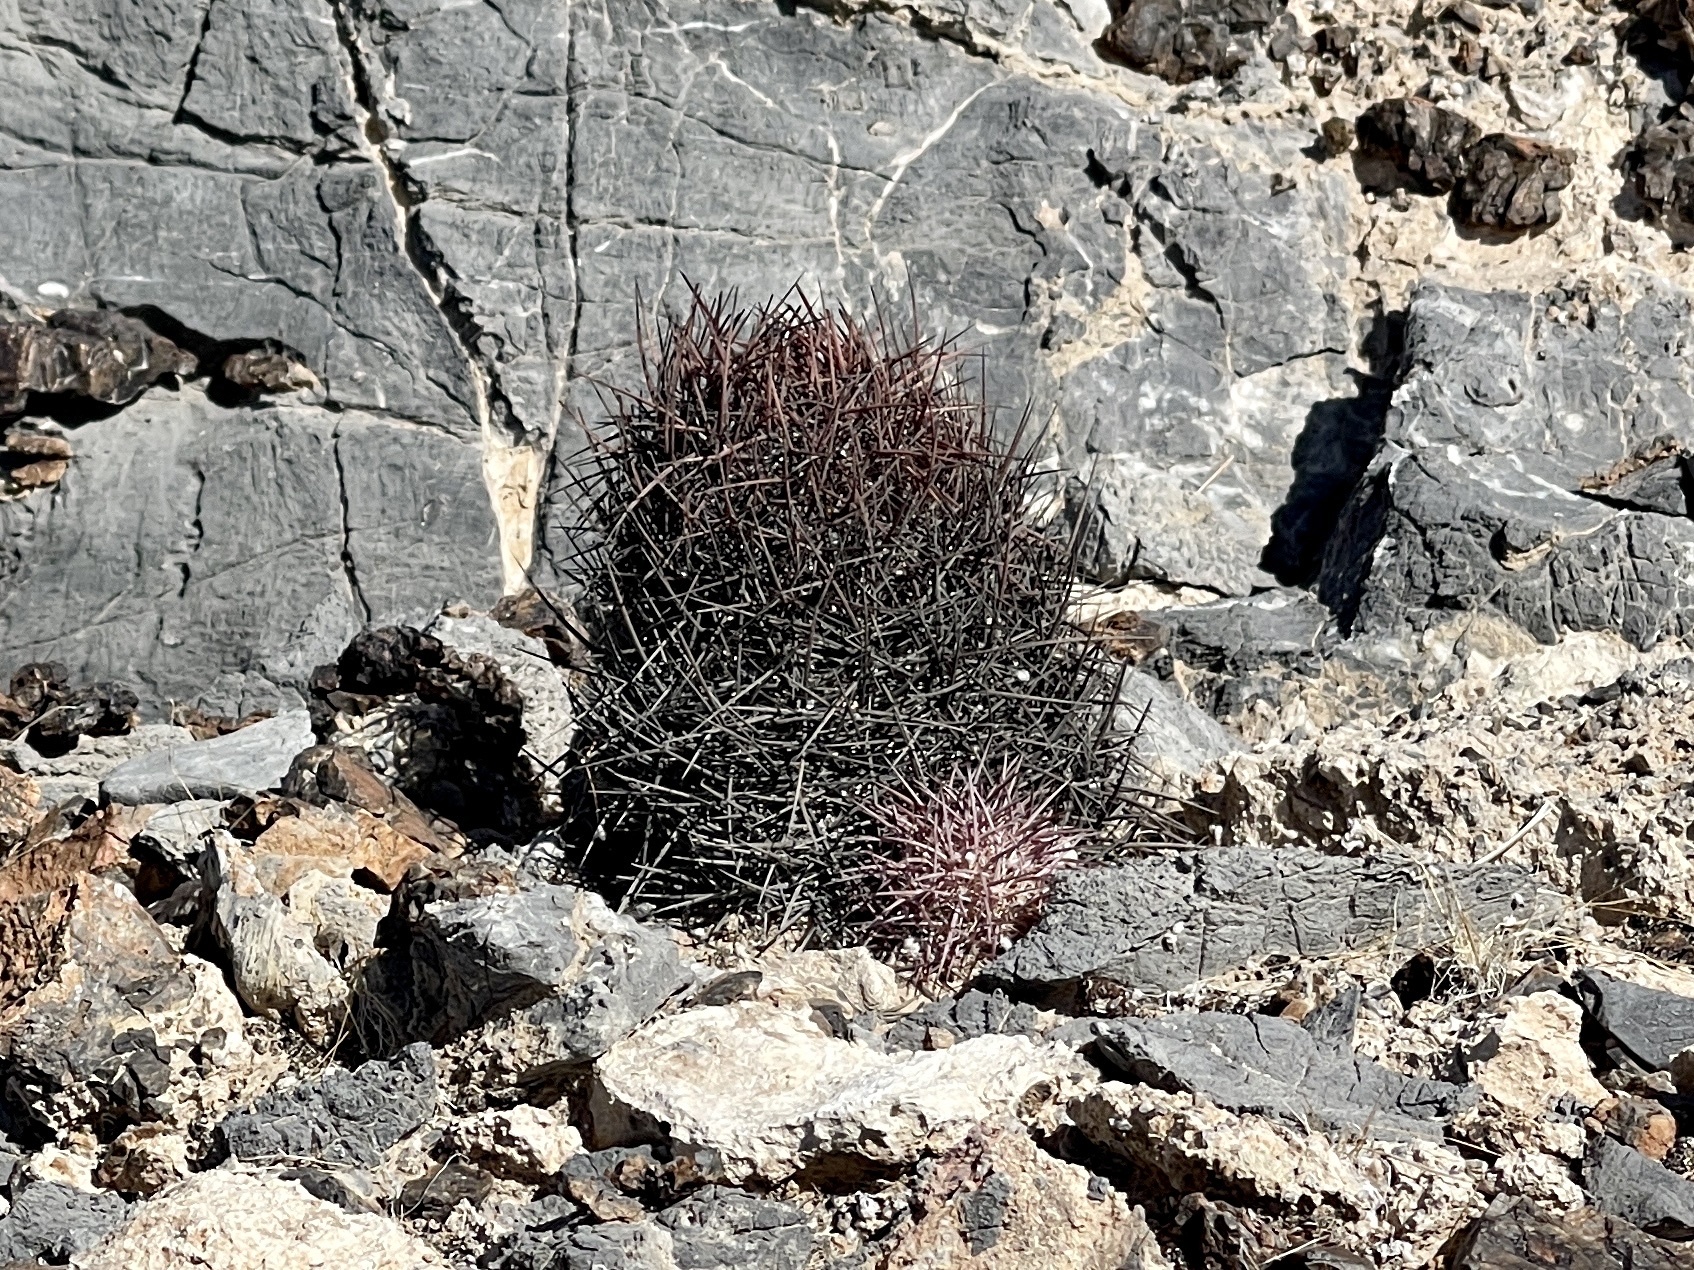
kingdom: Plantae
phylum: Tracheophyta
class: Magnoliopsida
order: Caryophyllales
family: Cactaceae
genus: Sclerocactus
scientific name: Sclerocactus johnsonii
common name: Eight-spine fishhook cactus
